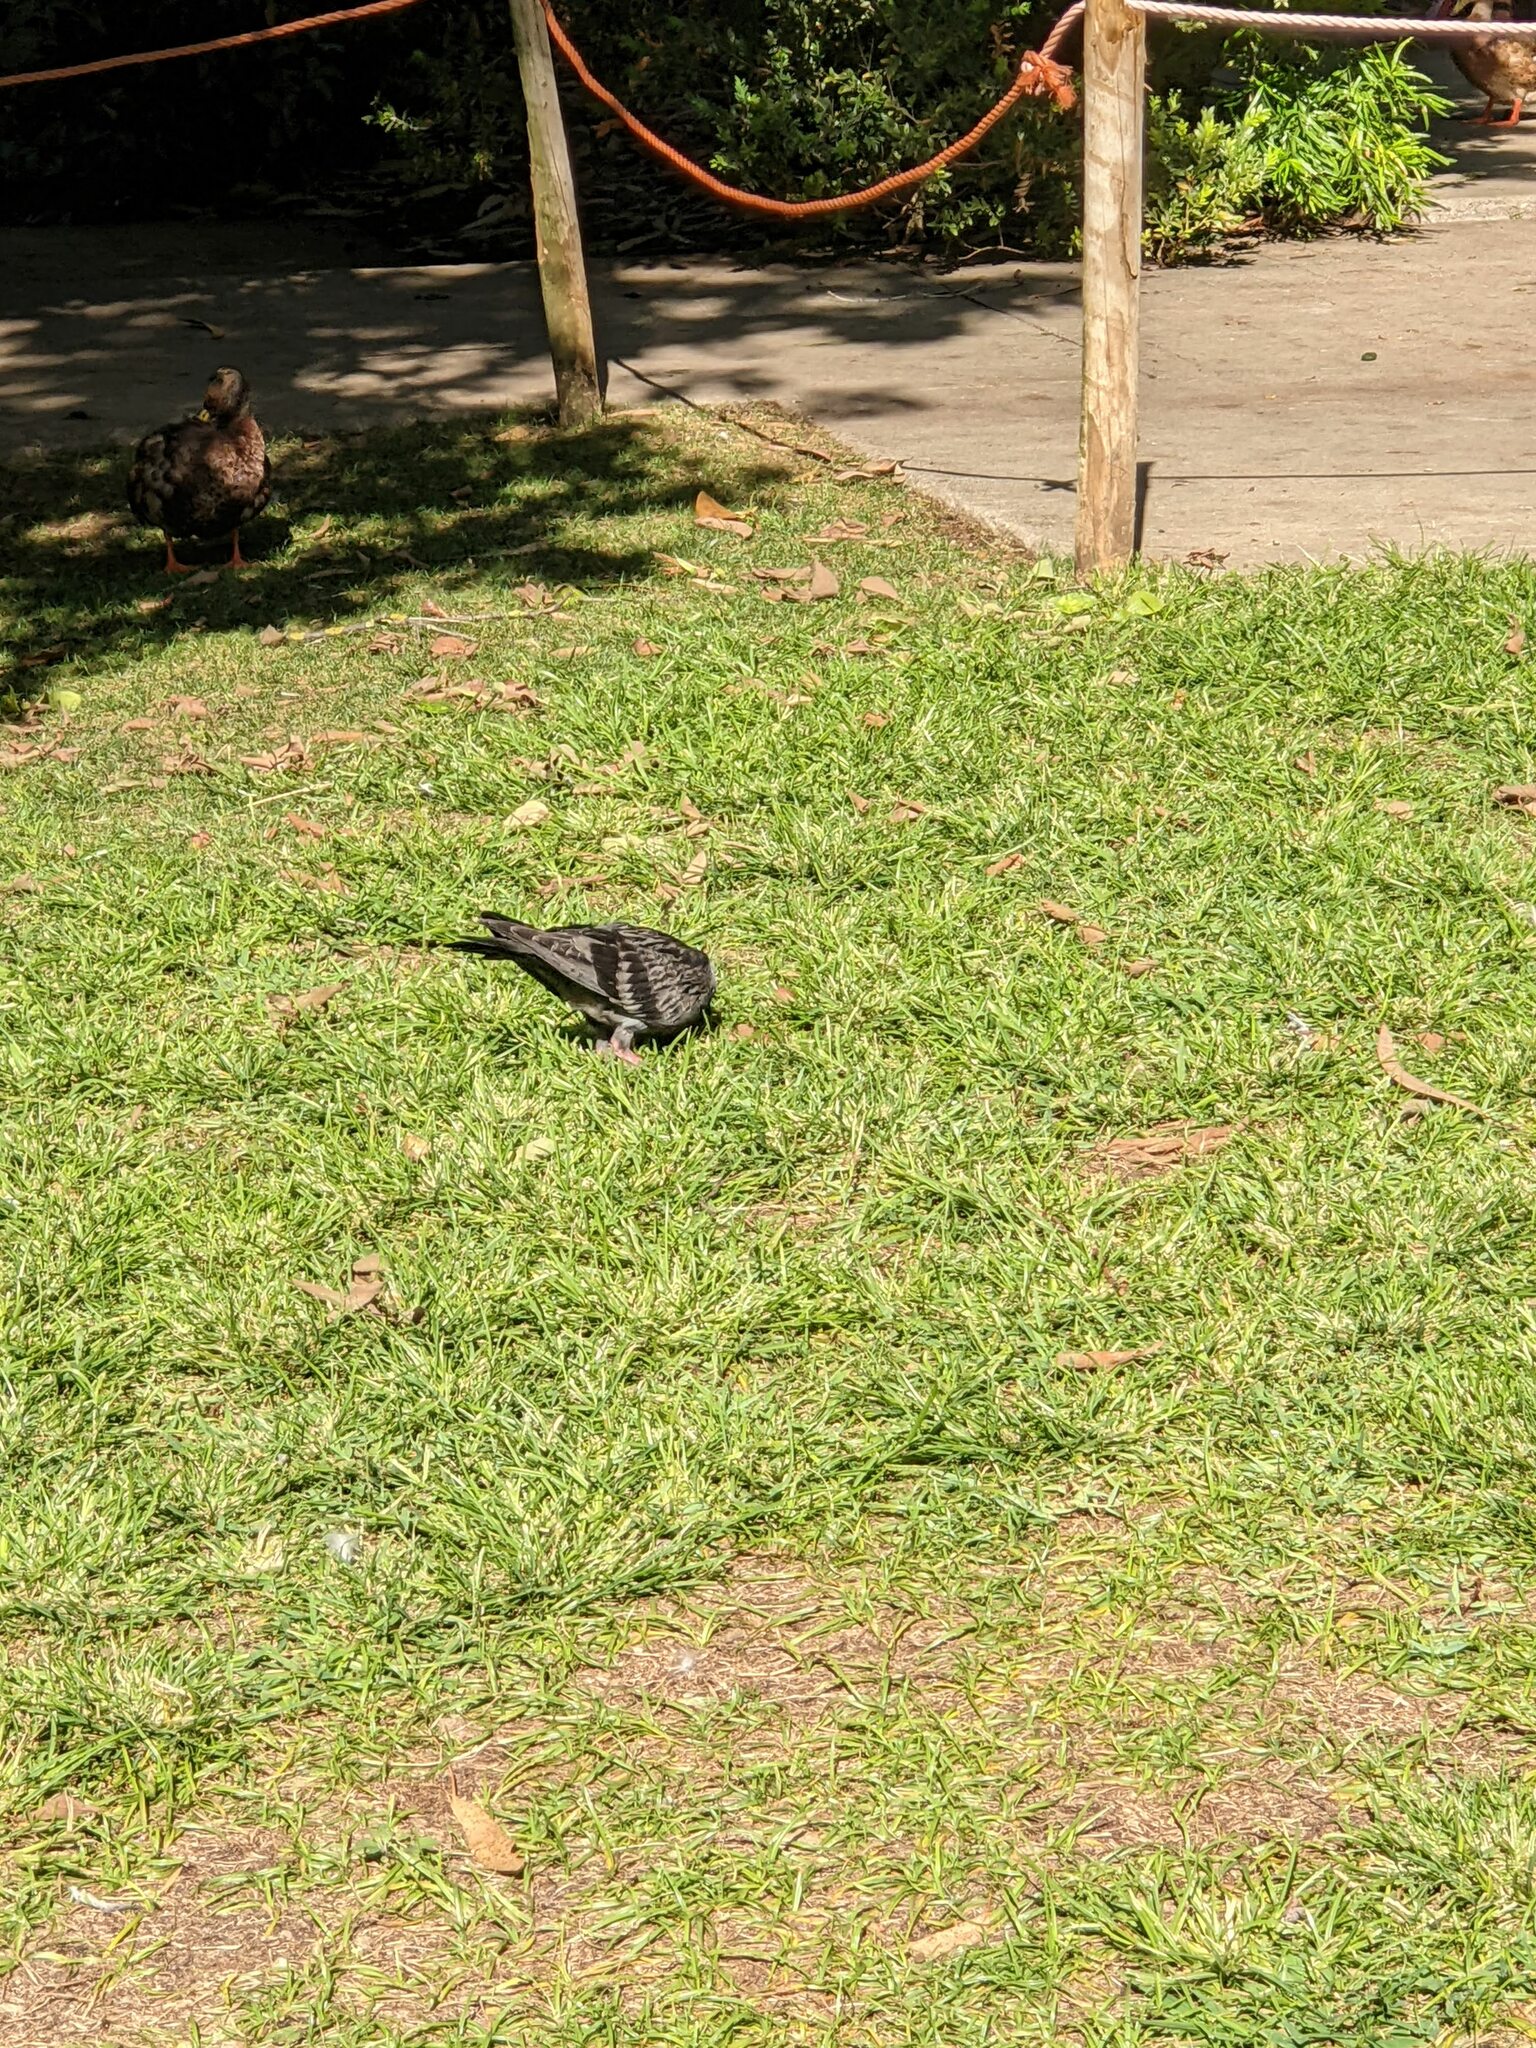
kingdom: Animalia
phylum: Chordata
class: Aves
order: Columbiformes
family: Columbidae
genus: Columba
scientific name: Columba livia
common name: Rock pigeon
